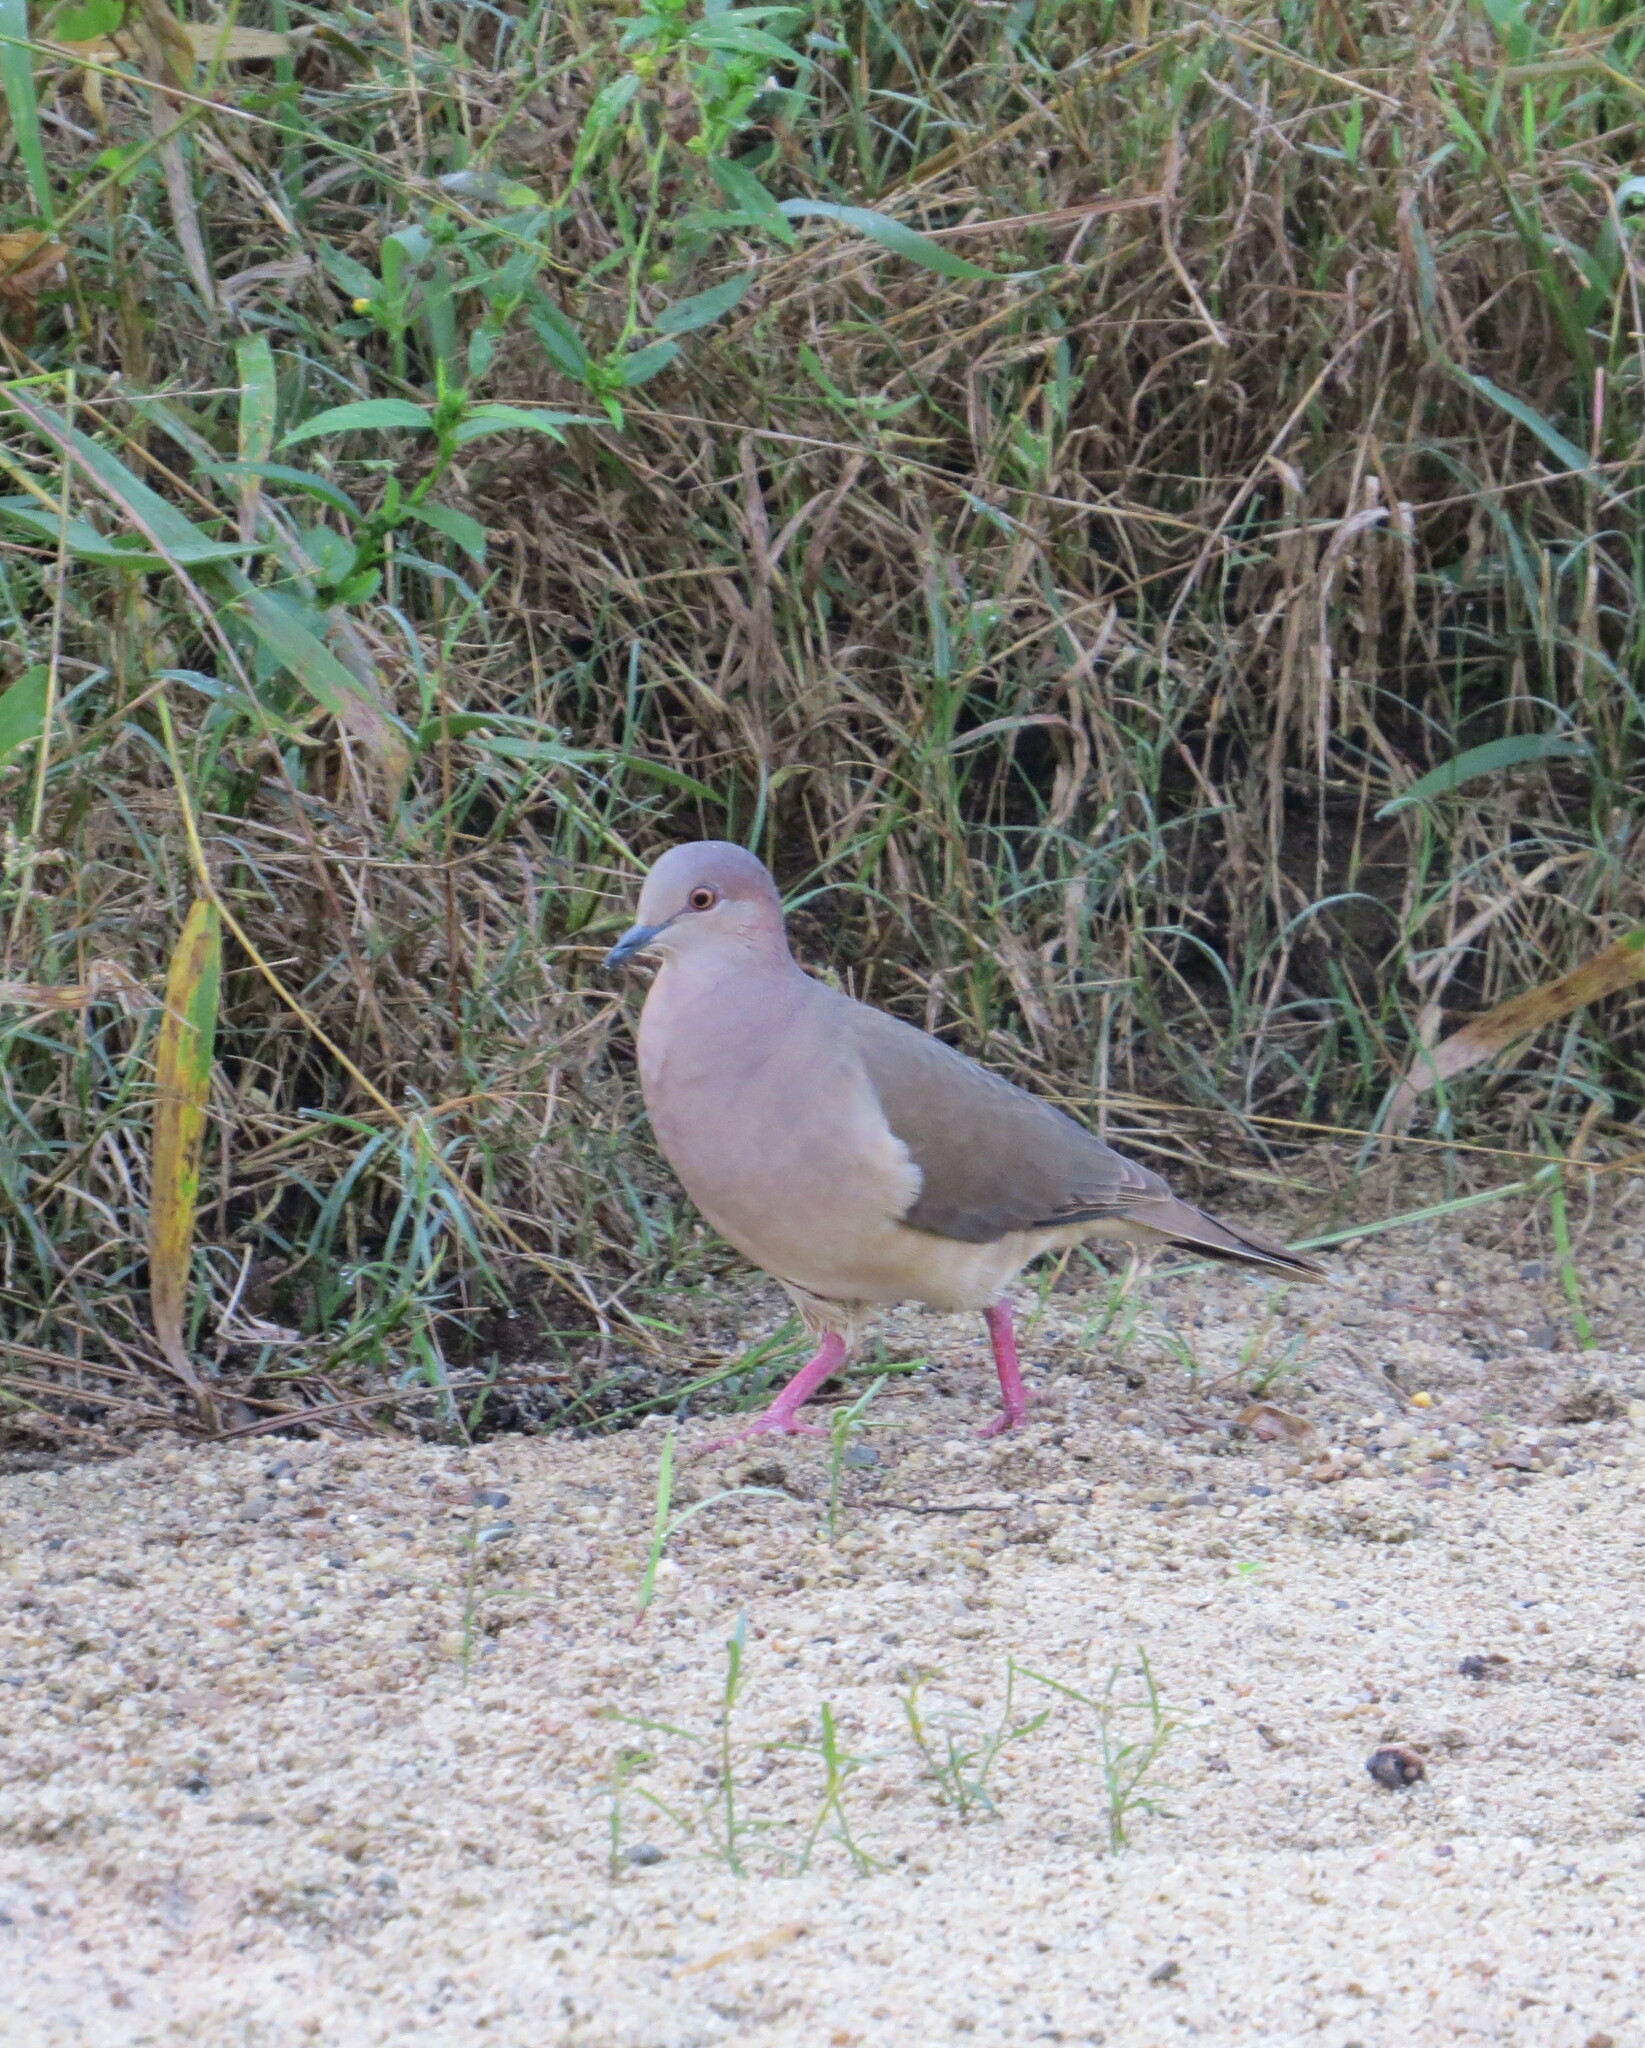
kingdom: Animalia
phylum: Chordata
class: Aves
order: Columbiformes
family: Columbidae
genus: Leptotila
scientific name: Leptotila verreauxi
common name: White-tipped dove
